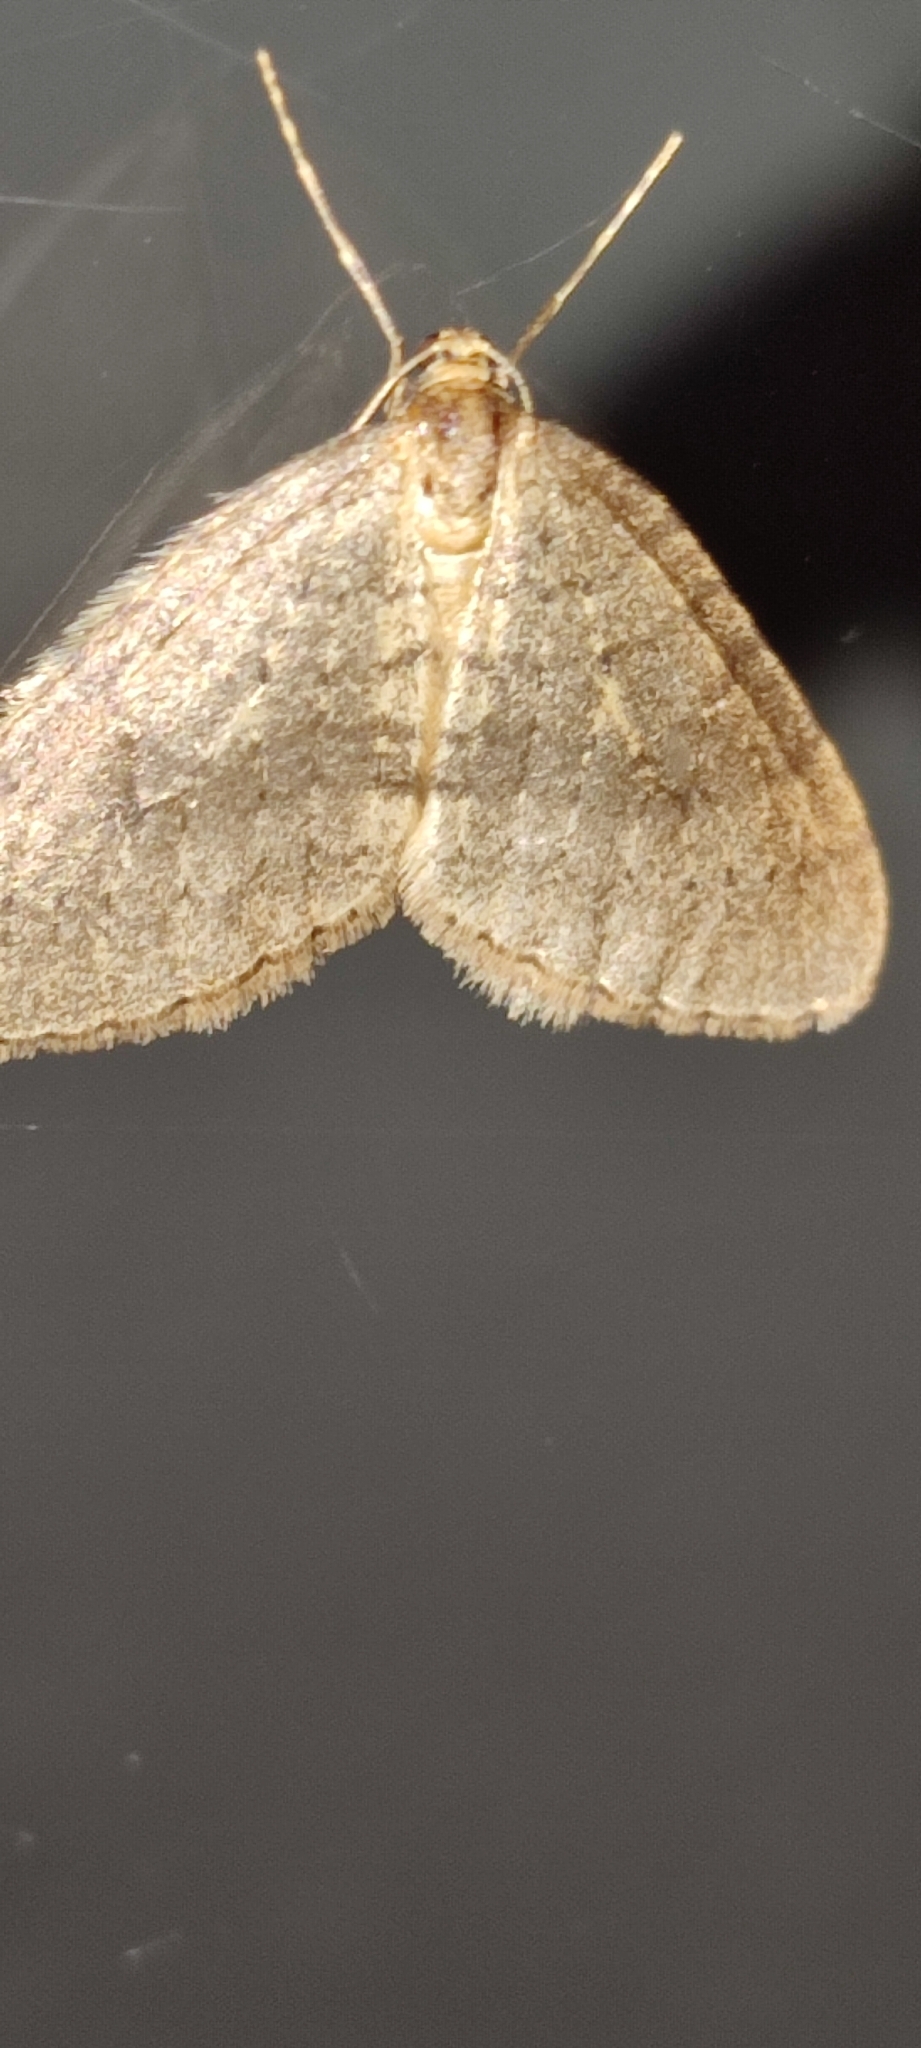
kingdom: Animalia
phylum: Arthropoda
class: Insecta
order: Lepidoptera
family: Geometridae
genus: Operophtera
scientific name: Operophtera brumata
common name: Winter moth
